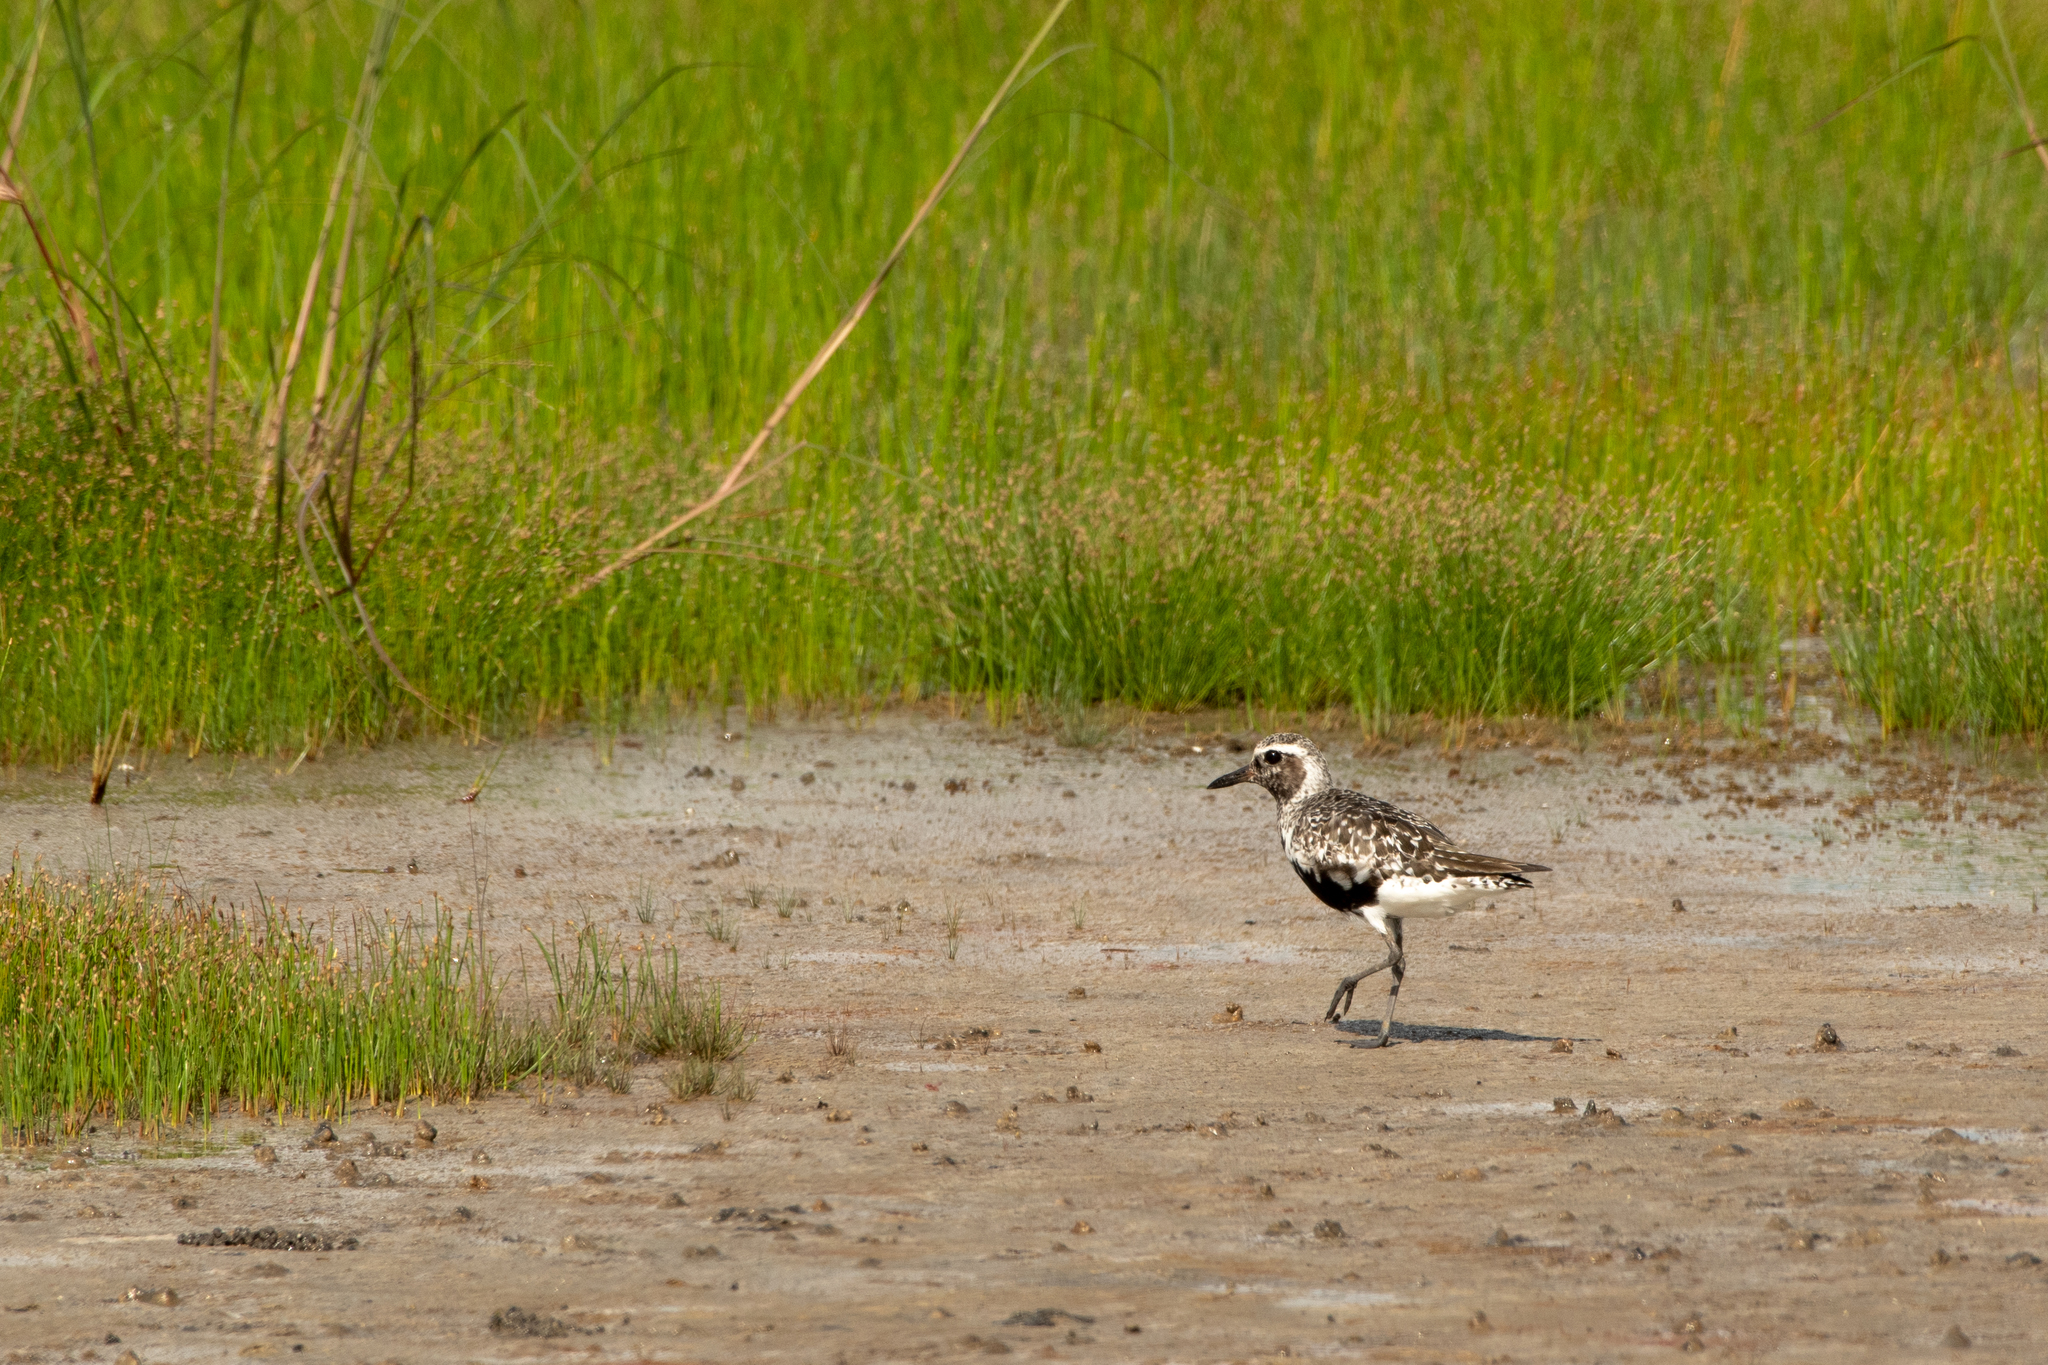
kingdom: Animalia
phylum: Chordata
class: Aves
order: Charadriiformes
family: Charadriidae
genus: Pluvialis
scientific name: Pluvialis squatarola
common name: Grey plover
